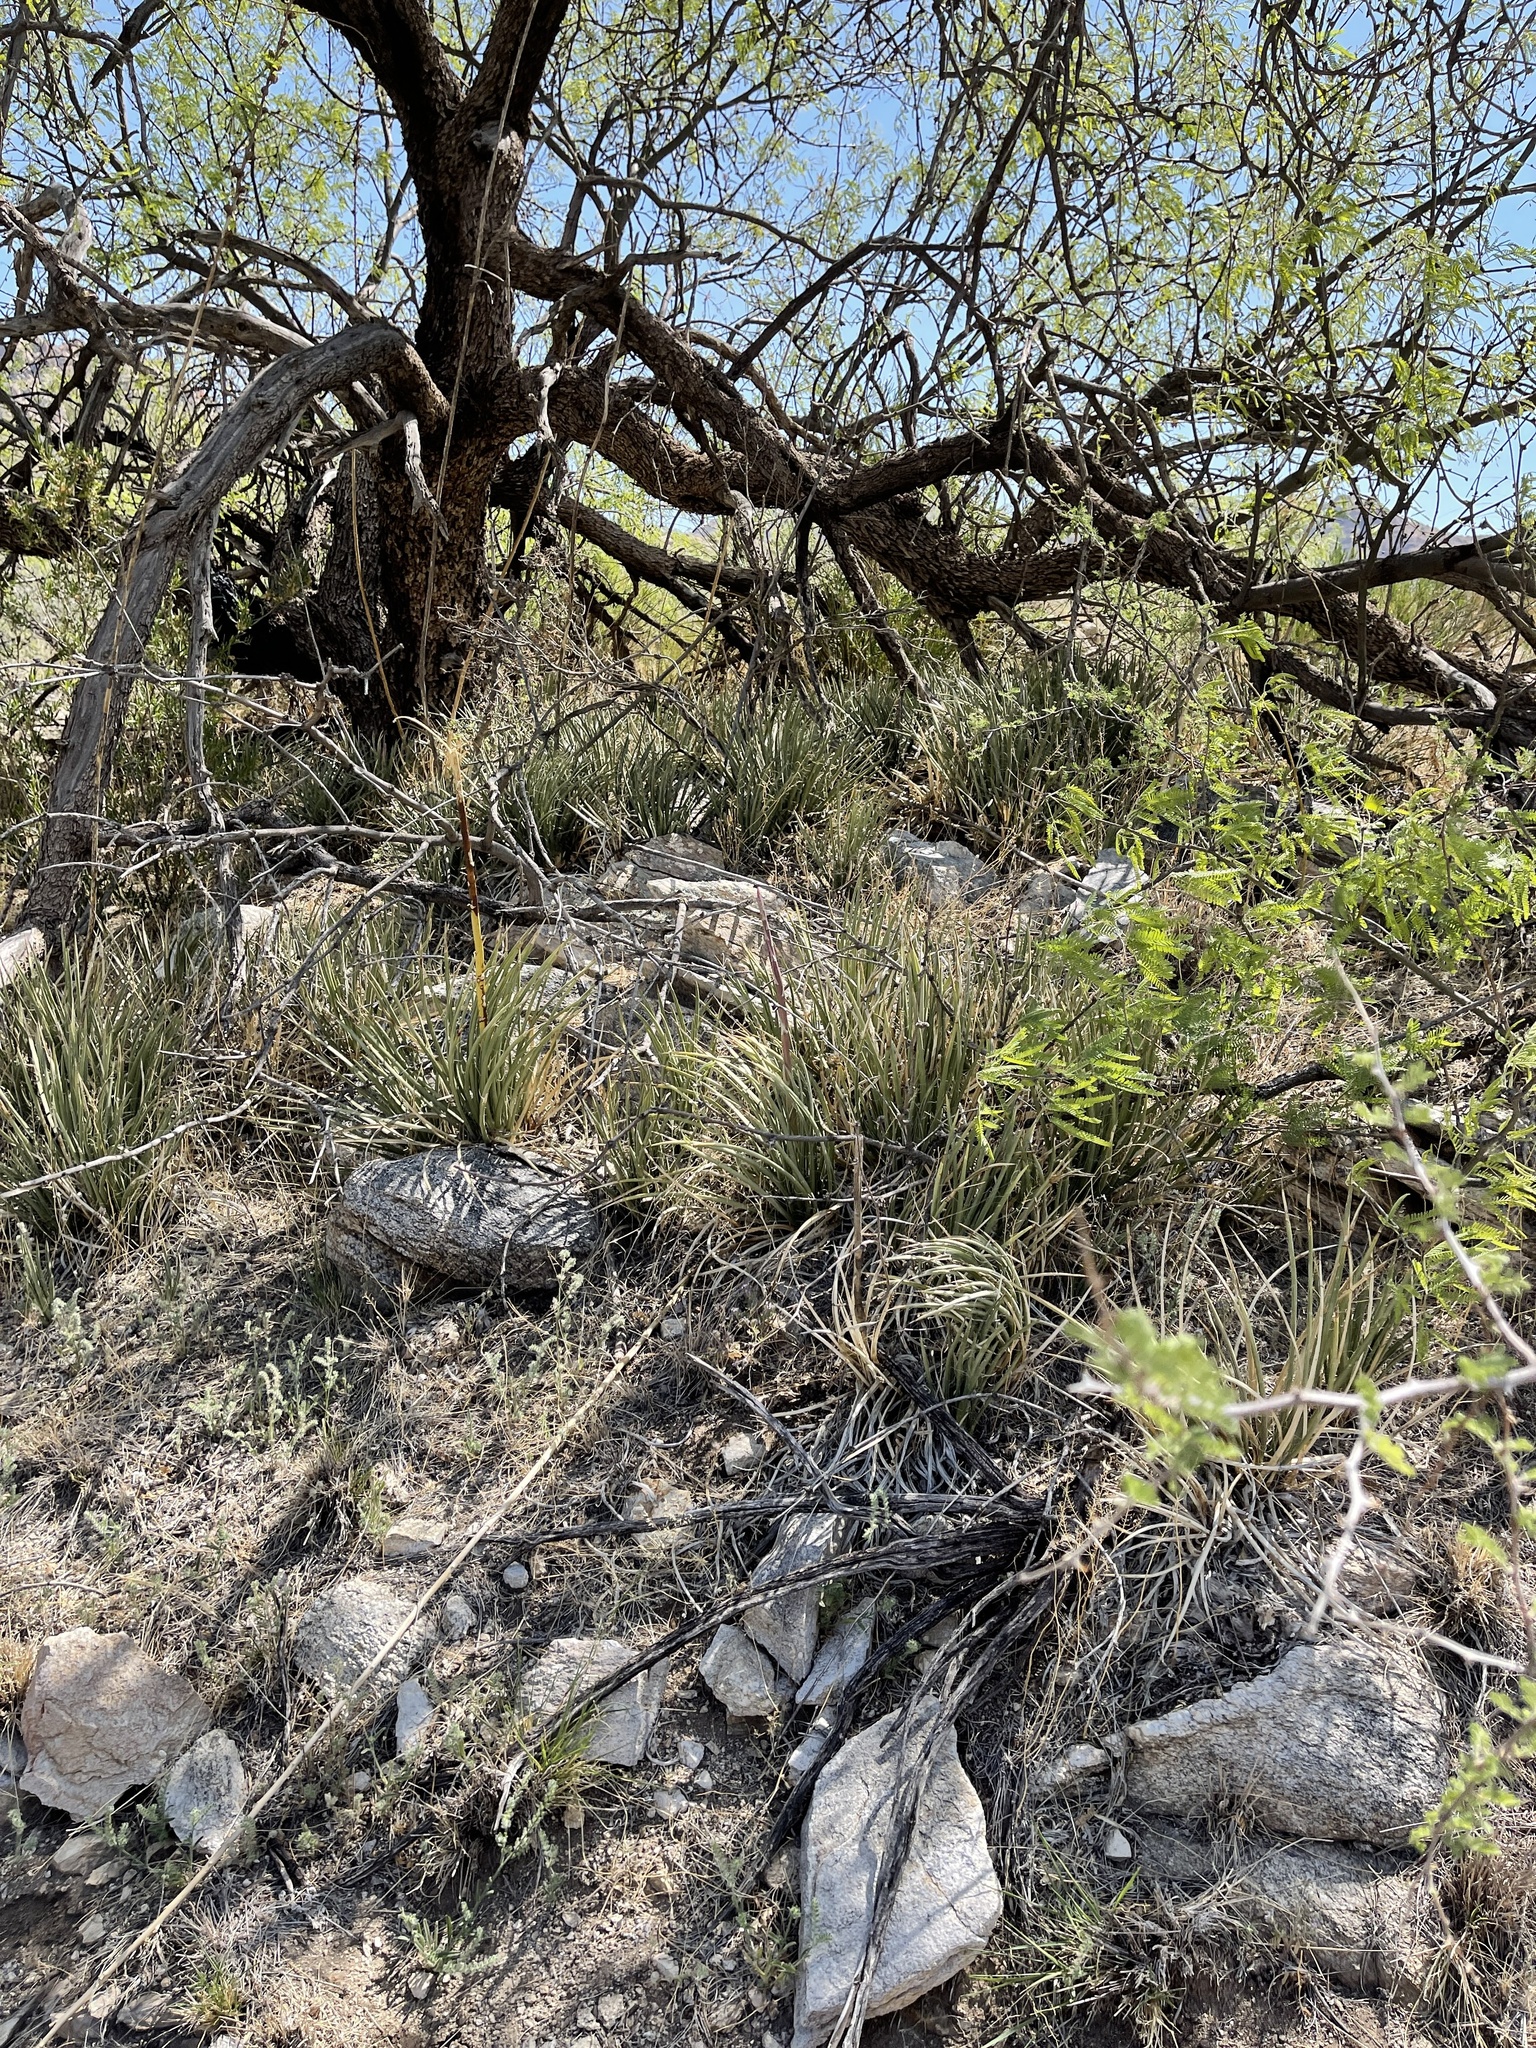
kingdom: Plantae
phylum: Tracheophyta
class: Liliopsida
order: Asparagales
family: Asparagaceae
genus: Nolina
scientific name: Nolina microcarpa
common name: Bear-grass
